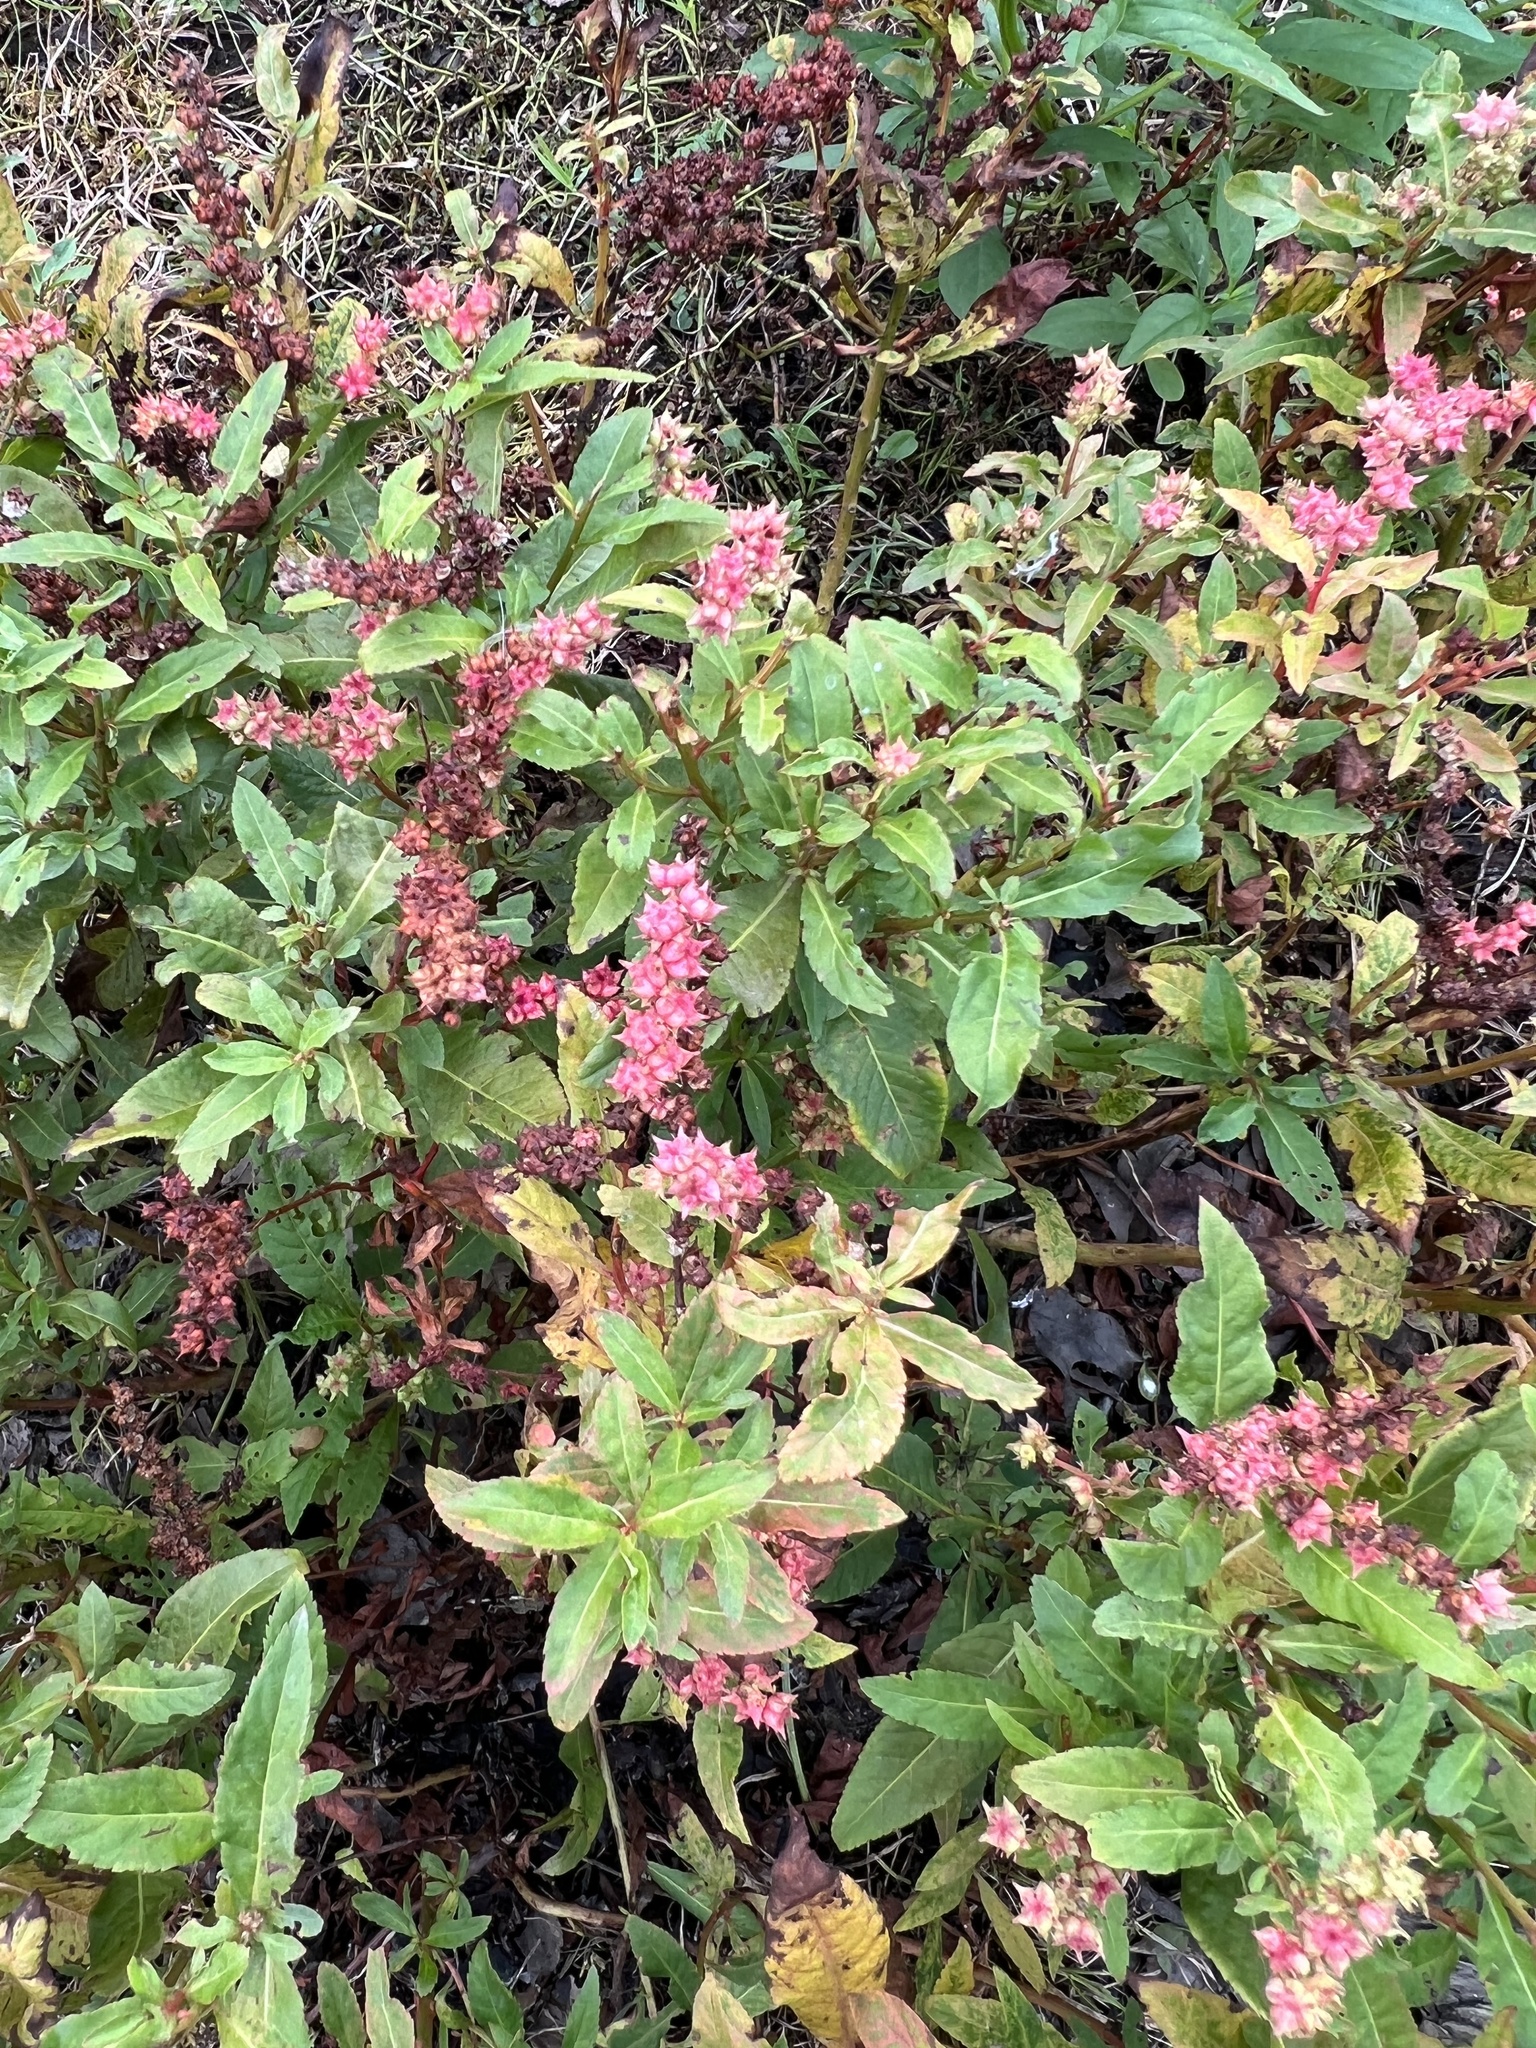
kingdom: Plantae
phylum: Tracheophyta
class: Magnoliopsida
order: Saxifragales
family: Penthoraceae
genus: Penthorum
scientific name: Penthorum sedoides
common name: Ditch stonecrop
